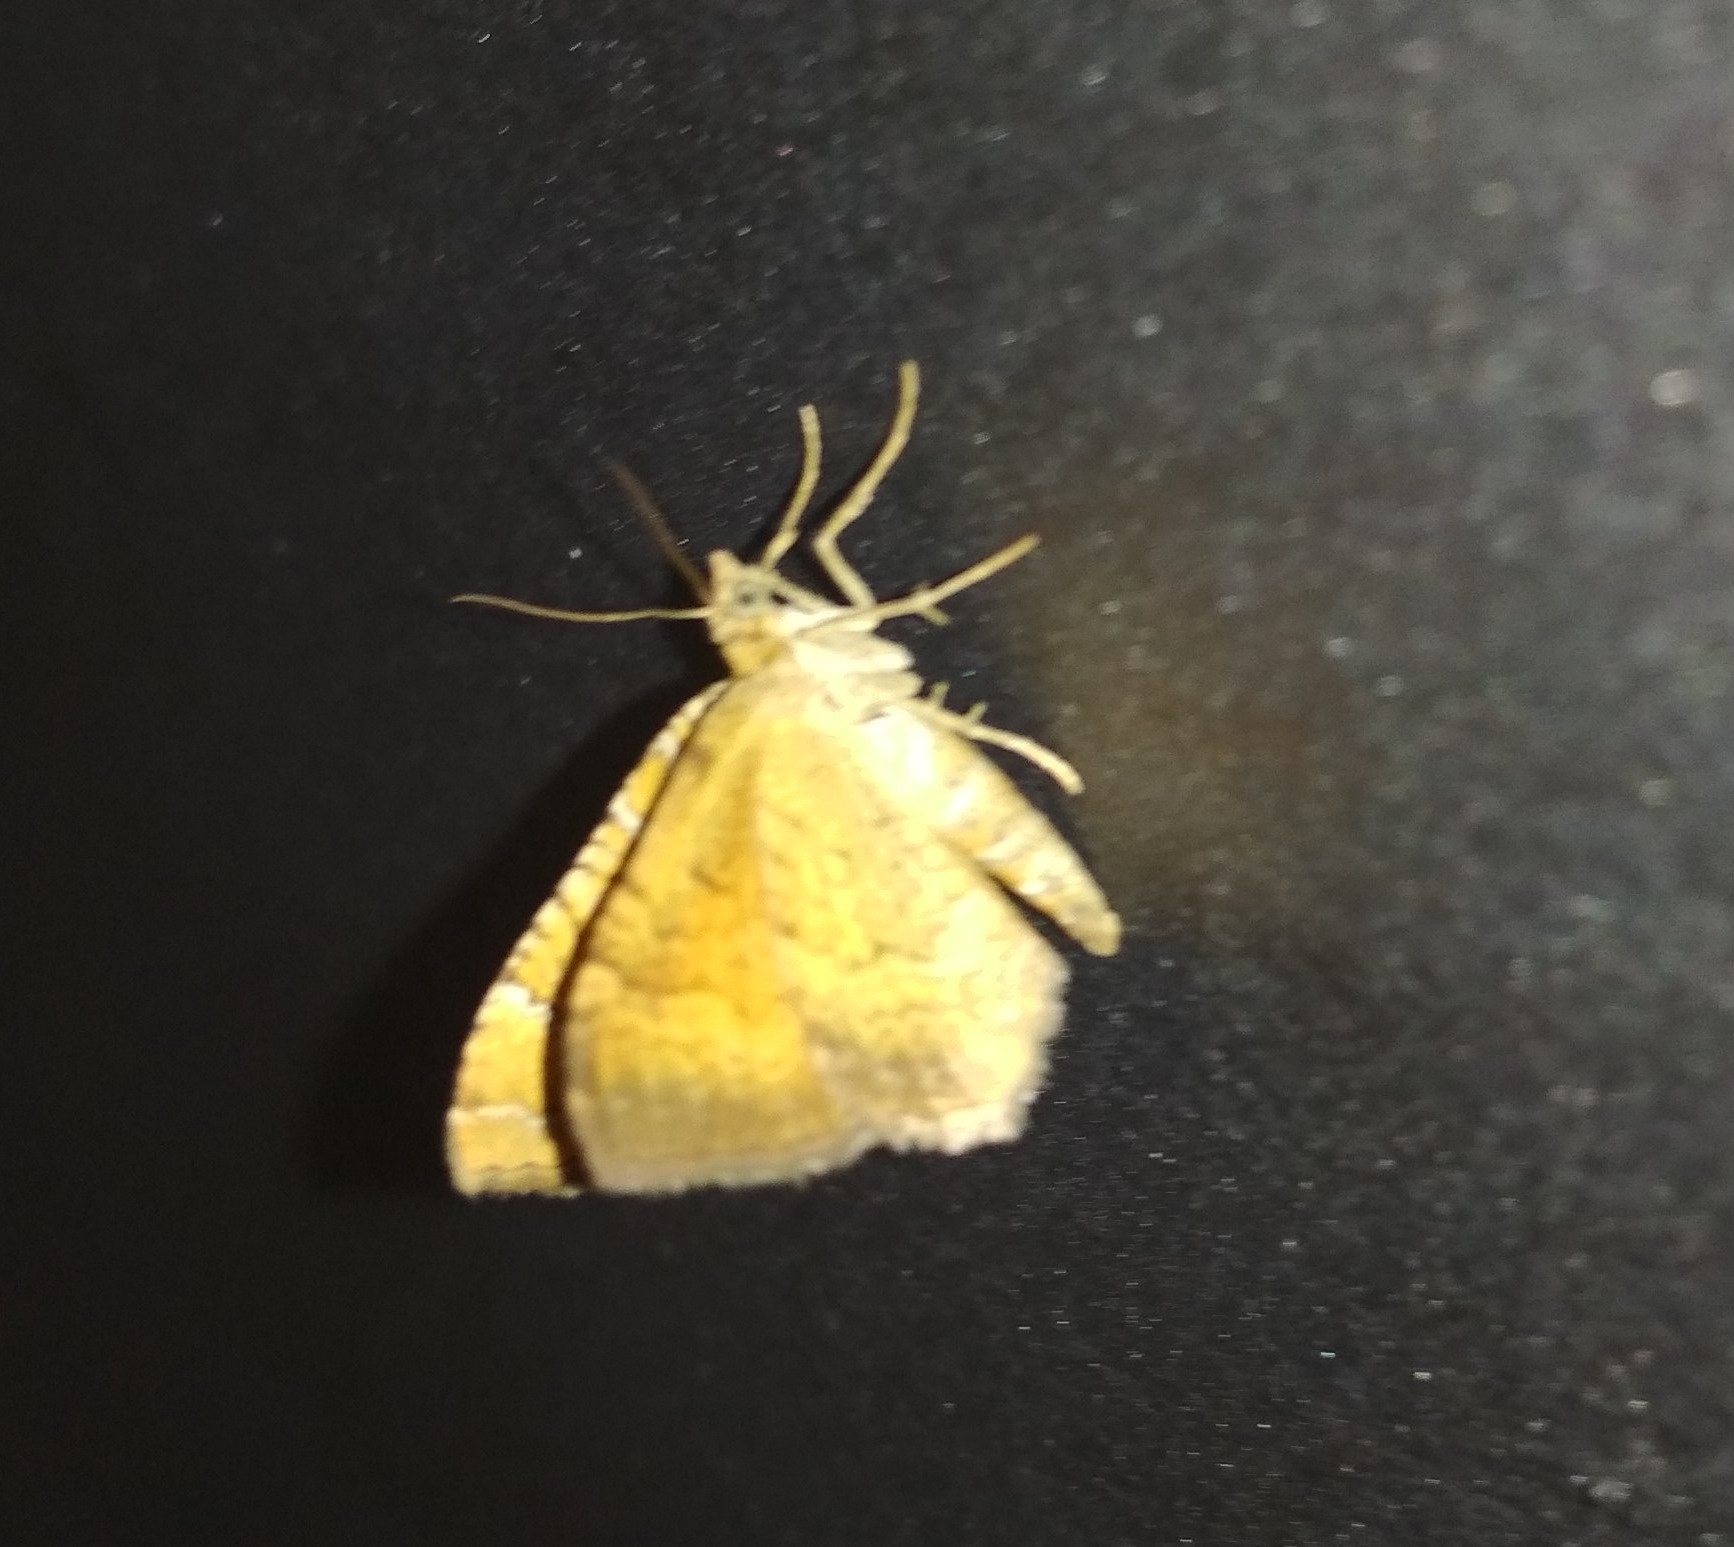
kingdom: Animalia
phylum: Arthropoda
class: Insecta
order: Lepidoptera
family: Geometridae
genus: Camptogramma
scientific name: Camptogramma bilineata
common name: Yellow shell
